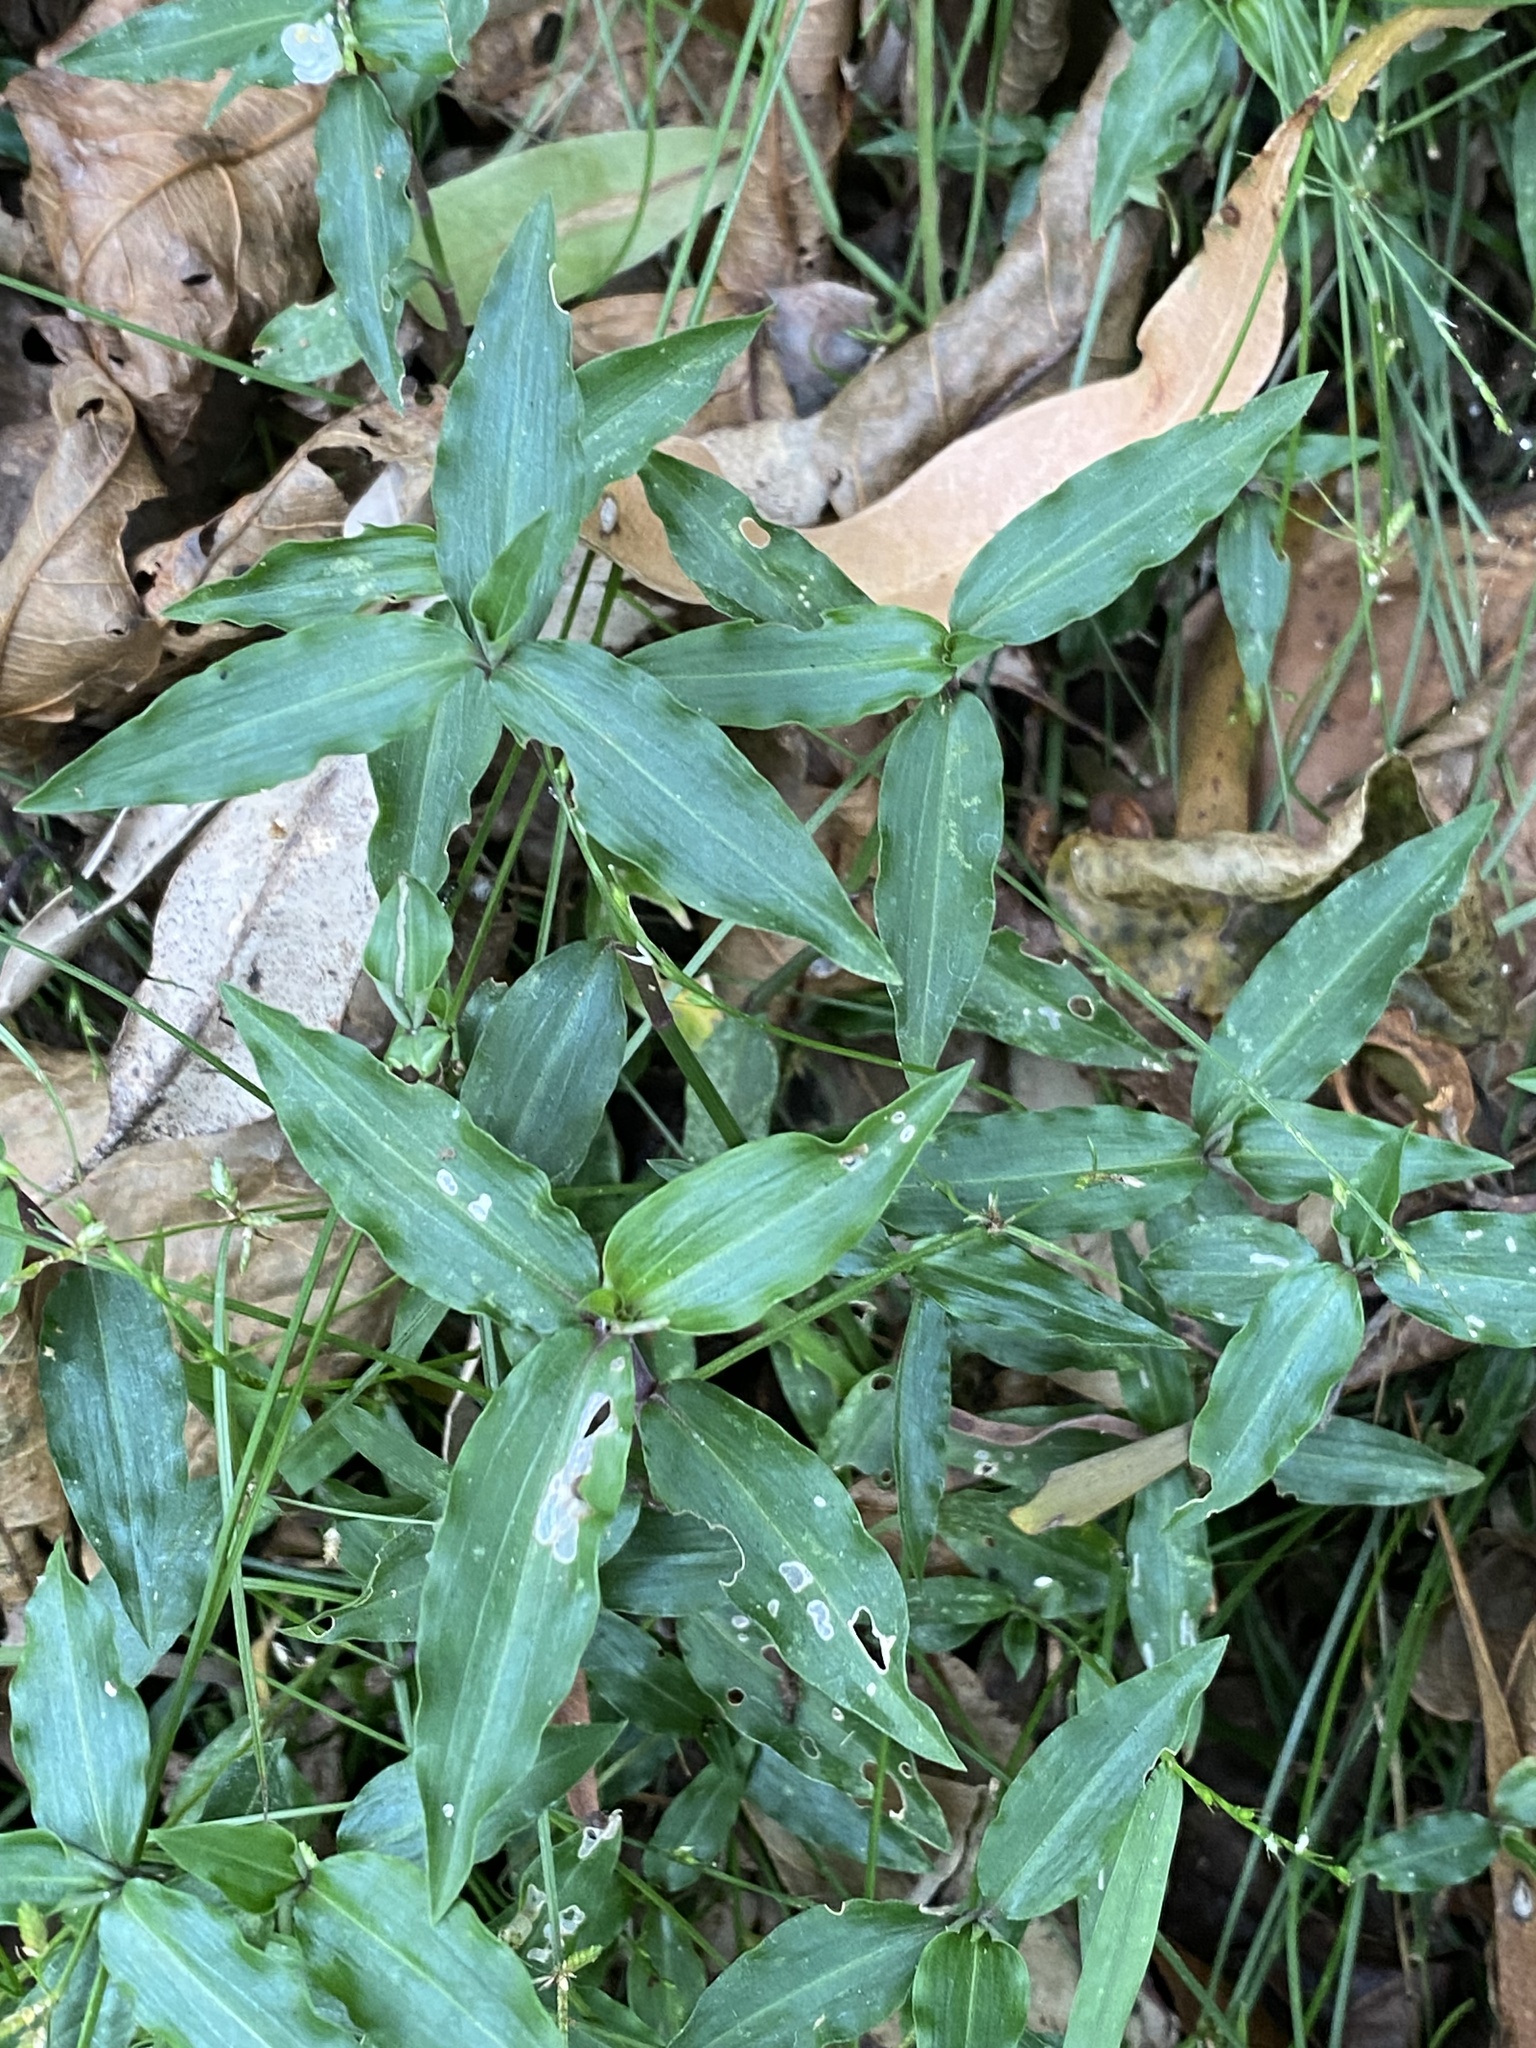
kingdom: Plantae
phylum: Tracheophyta
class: Liliopsida
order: Commelinales
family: Commelinaceae
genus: Aneilema
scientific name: Aneilema biflorum
